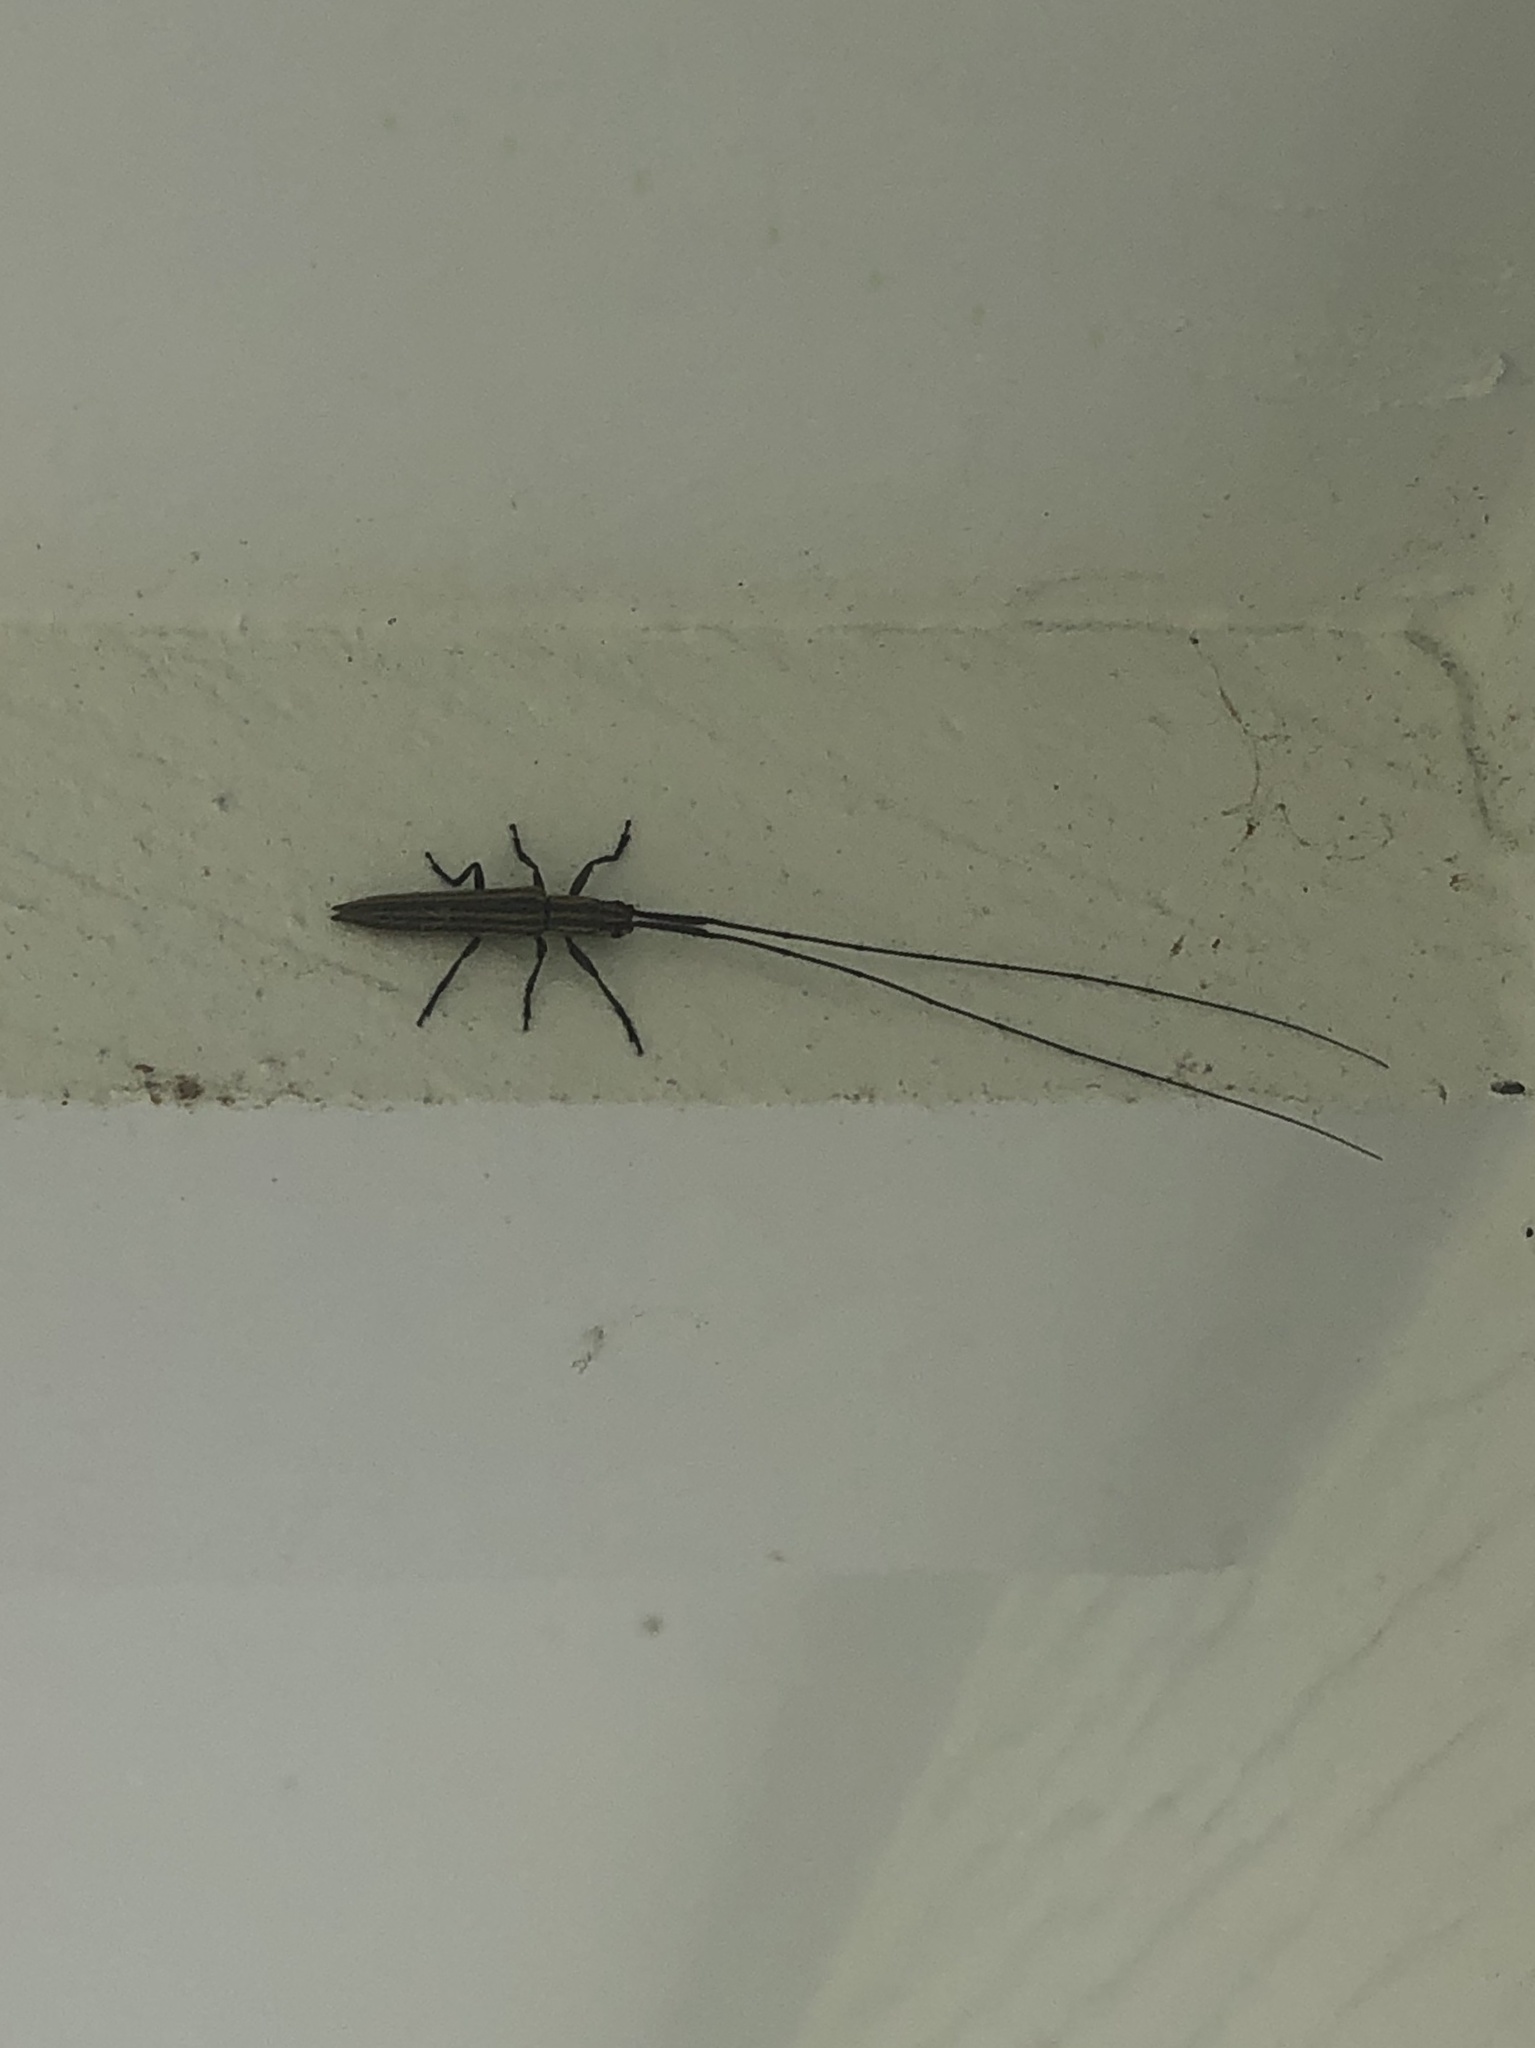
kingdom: Animalia
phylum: Arthropoda
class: Insecta
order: Coleoptera
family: Cerambycidae
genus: Hippopsis
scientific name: Hippopsis
